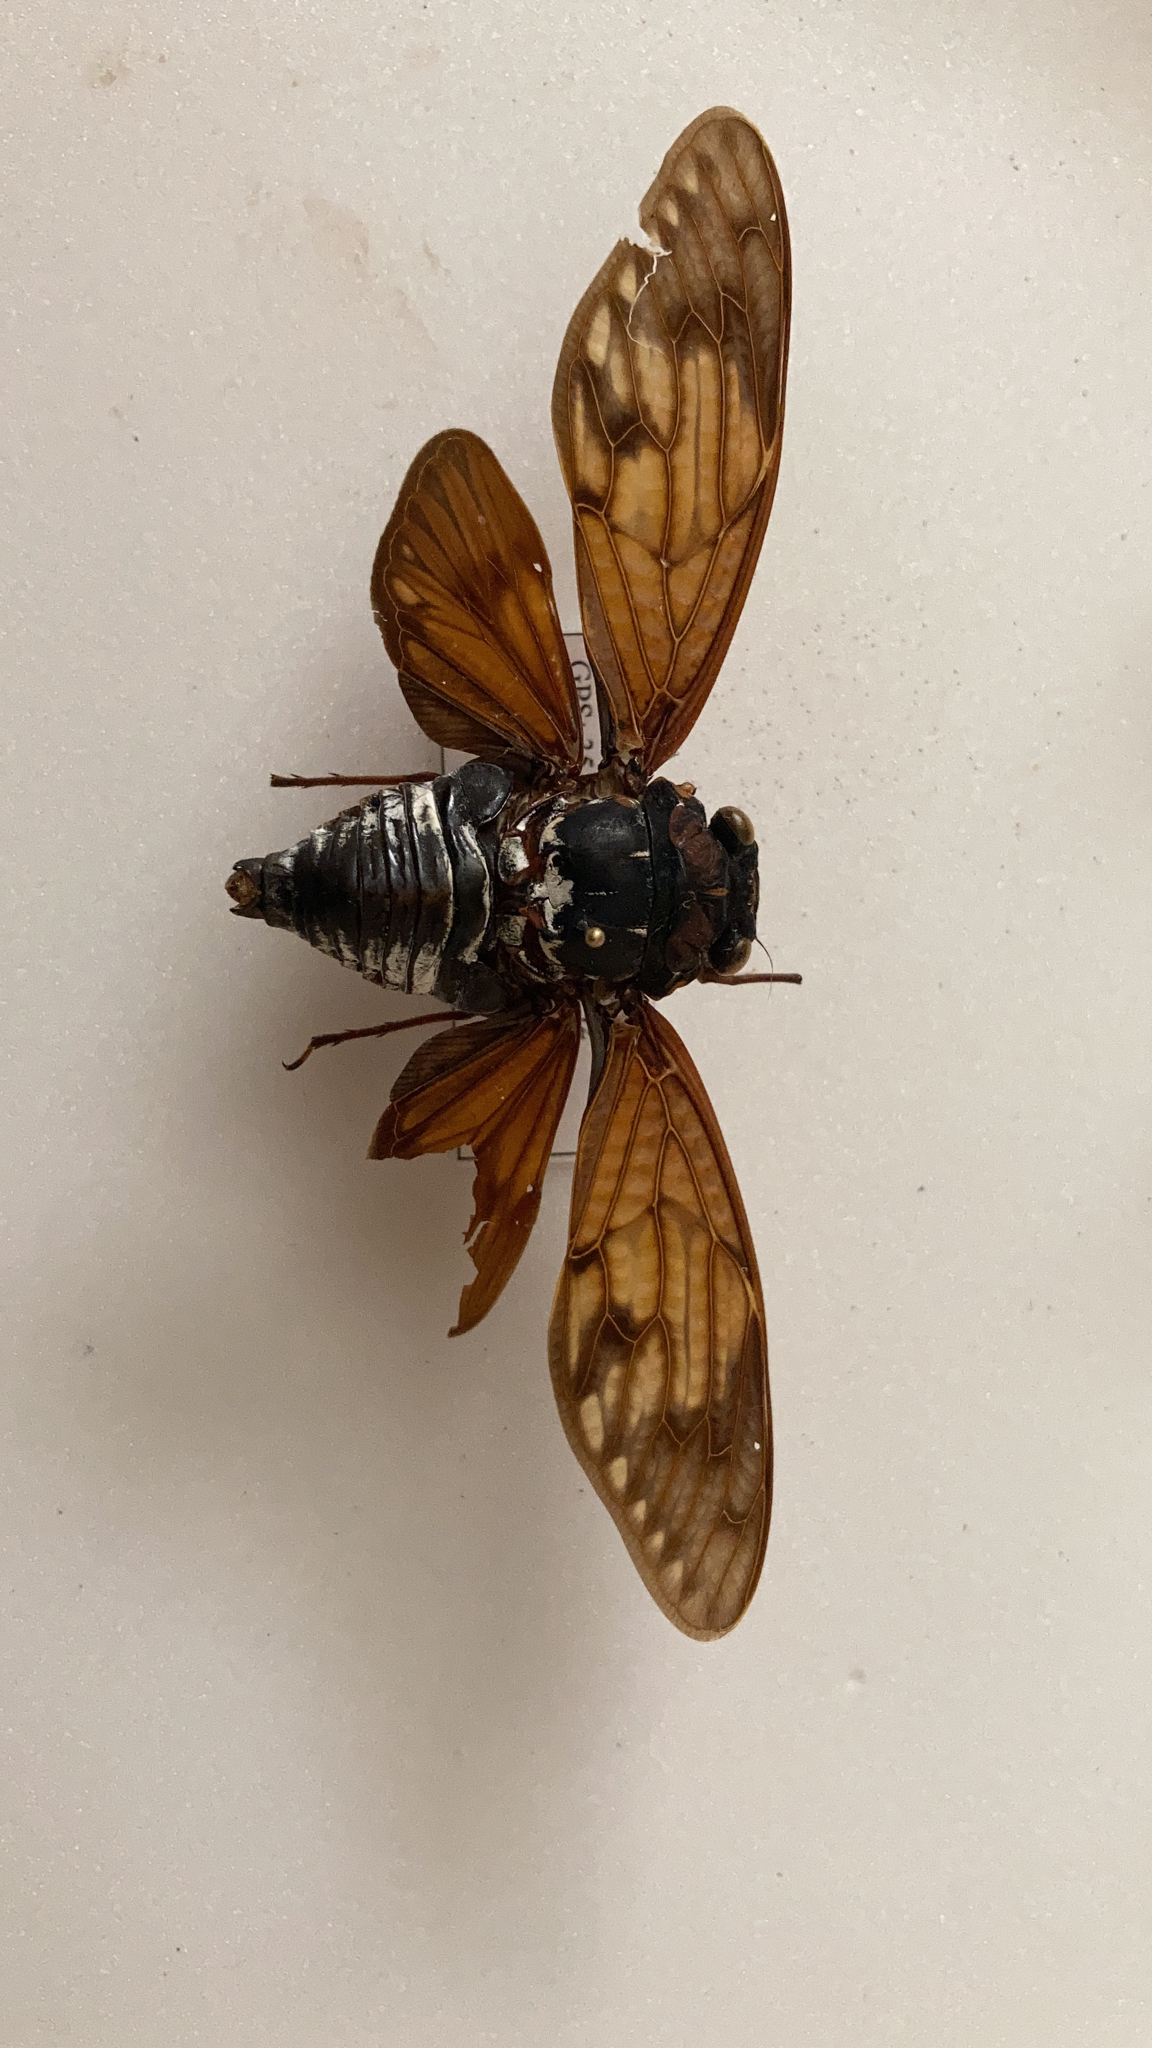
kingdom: Animalia
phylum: Arthropoda
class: Insecta
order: Hemiptera
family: Cicadidae
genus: Graptopsaltria
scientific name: Graptopsaltria nigrofuscata
